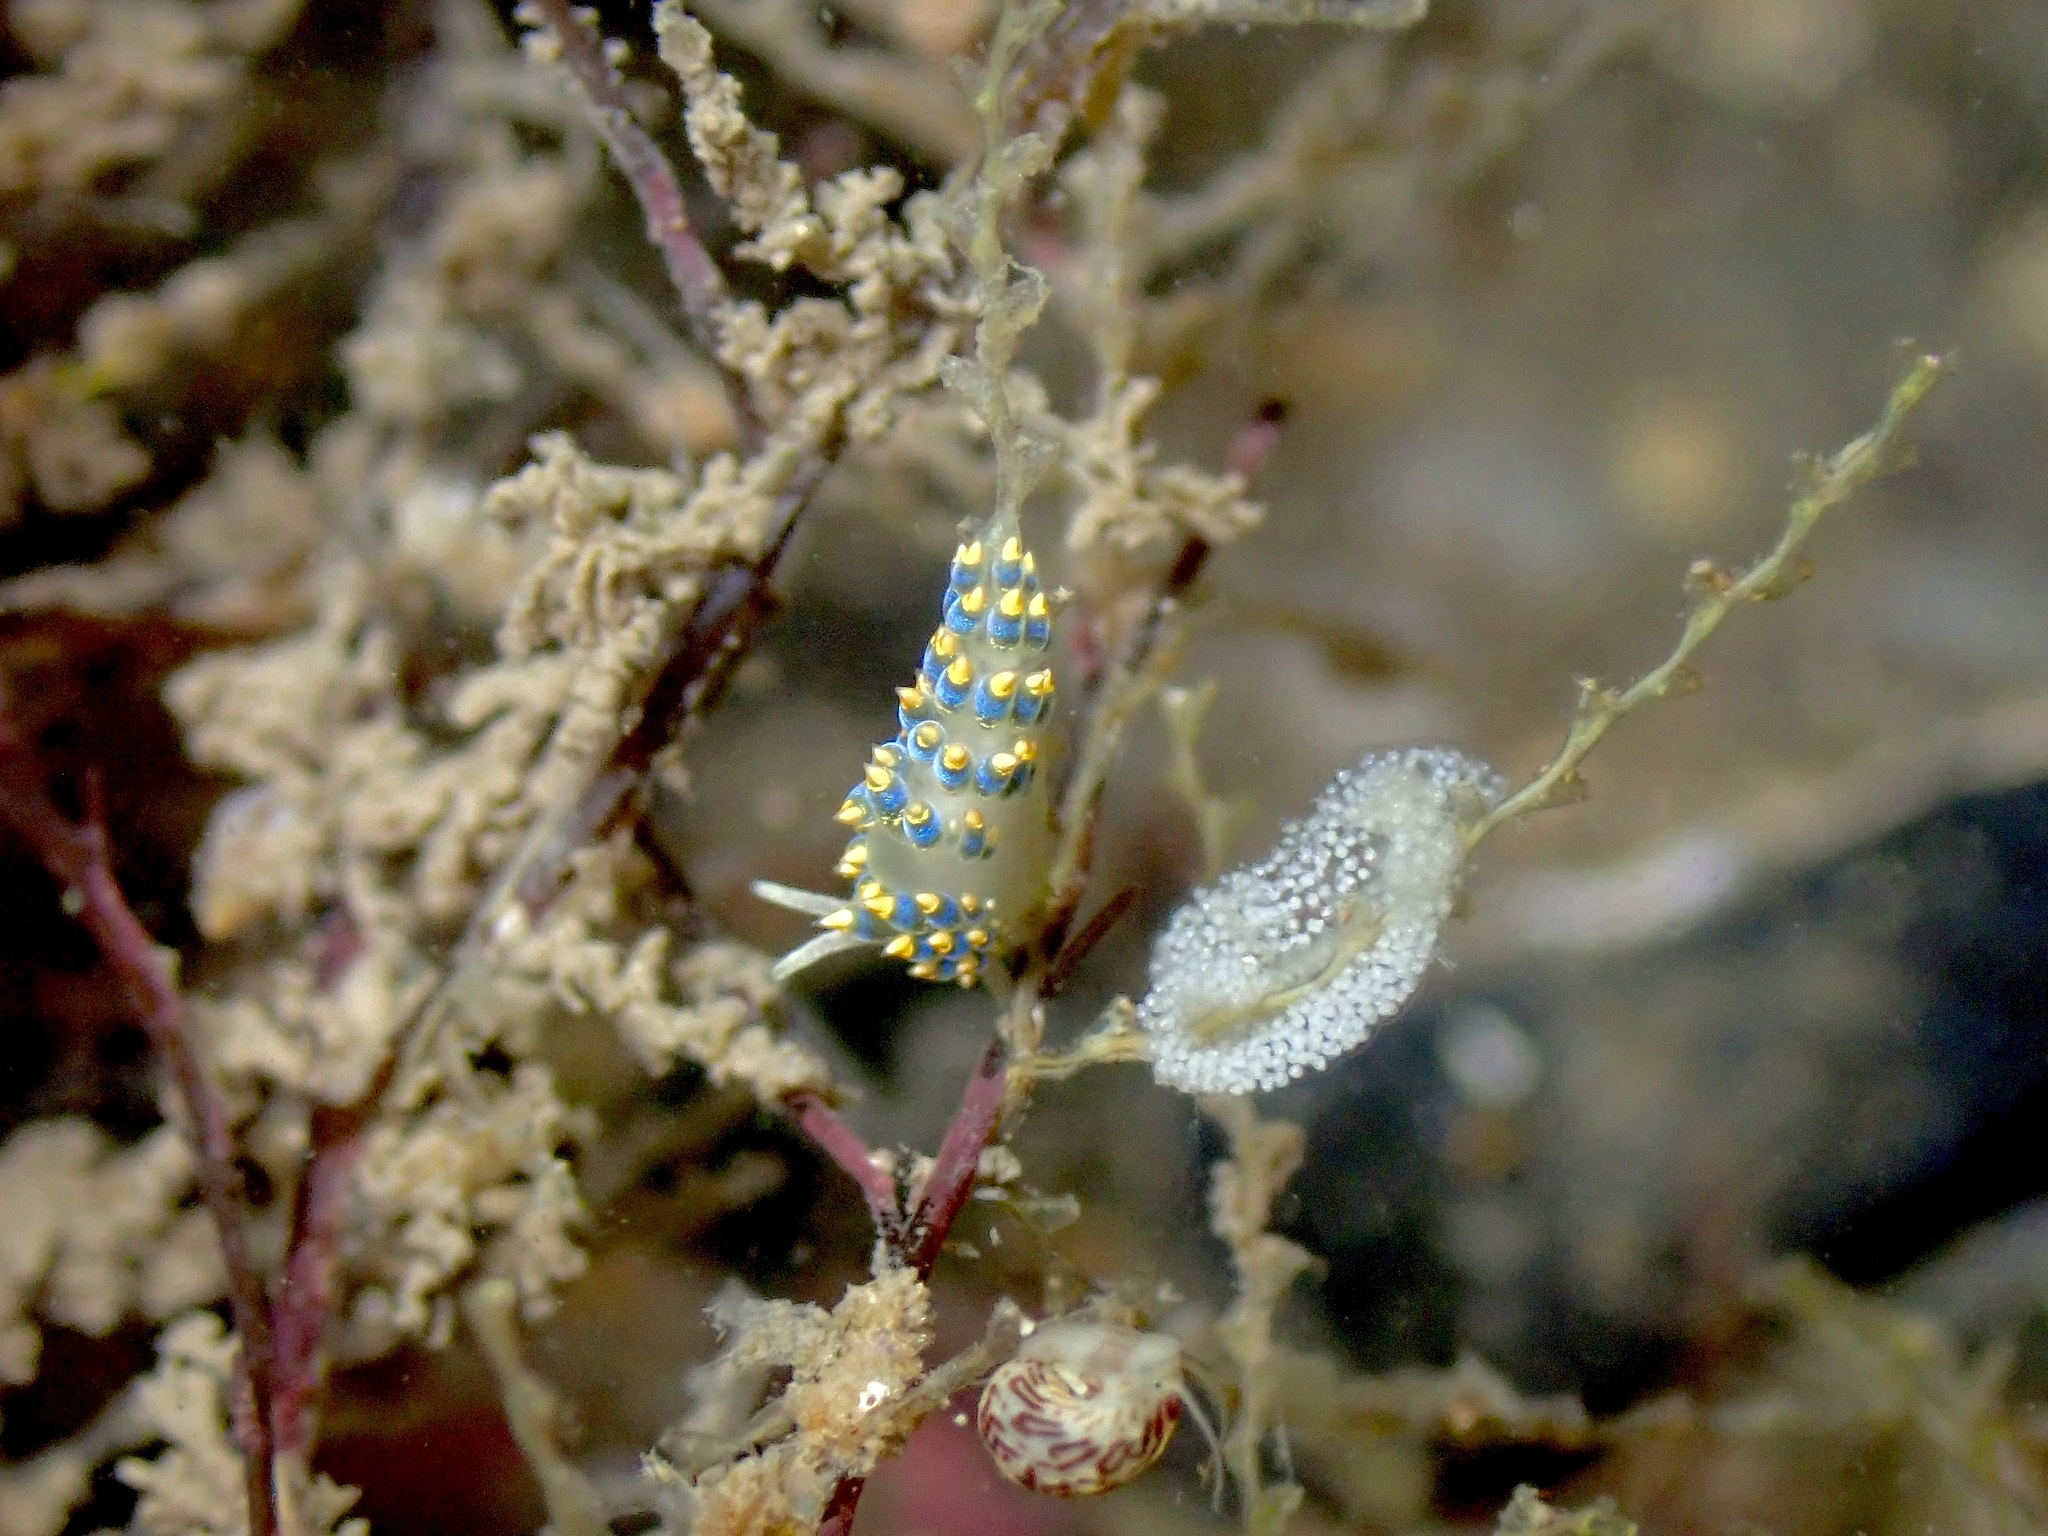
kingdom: Animalia
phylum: Mollusca
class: Gastropoda
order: Nudibranchia
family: Trinchesiidae
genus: Trinchesia
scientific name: Trinchesia cuanensis
